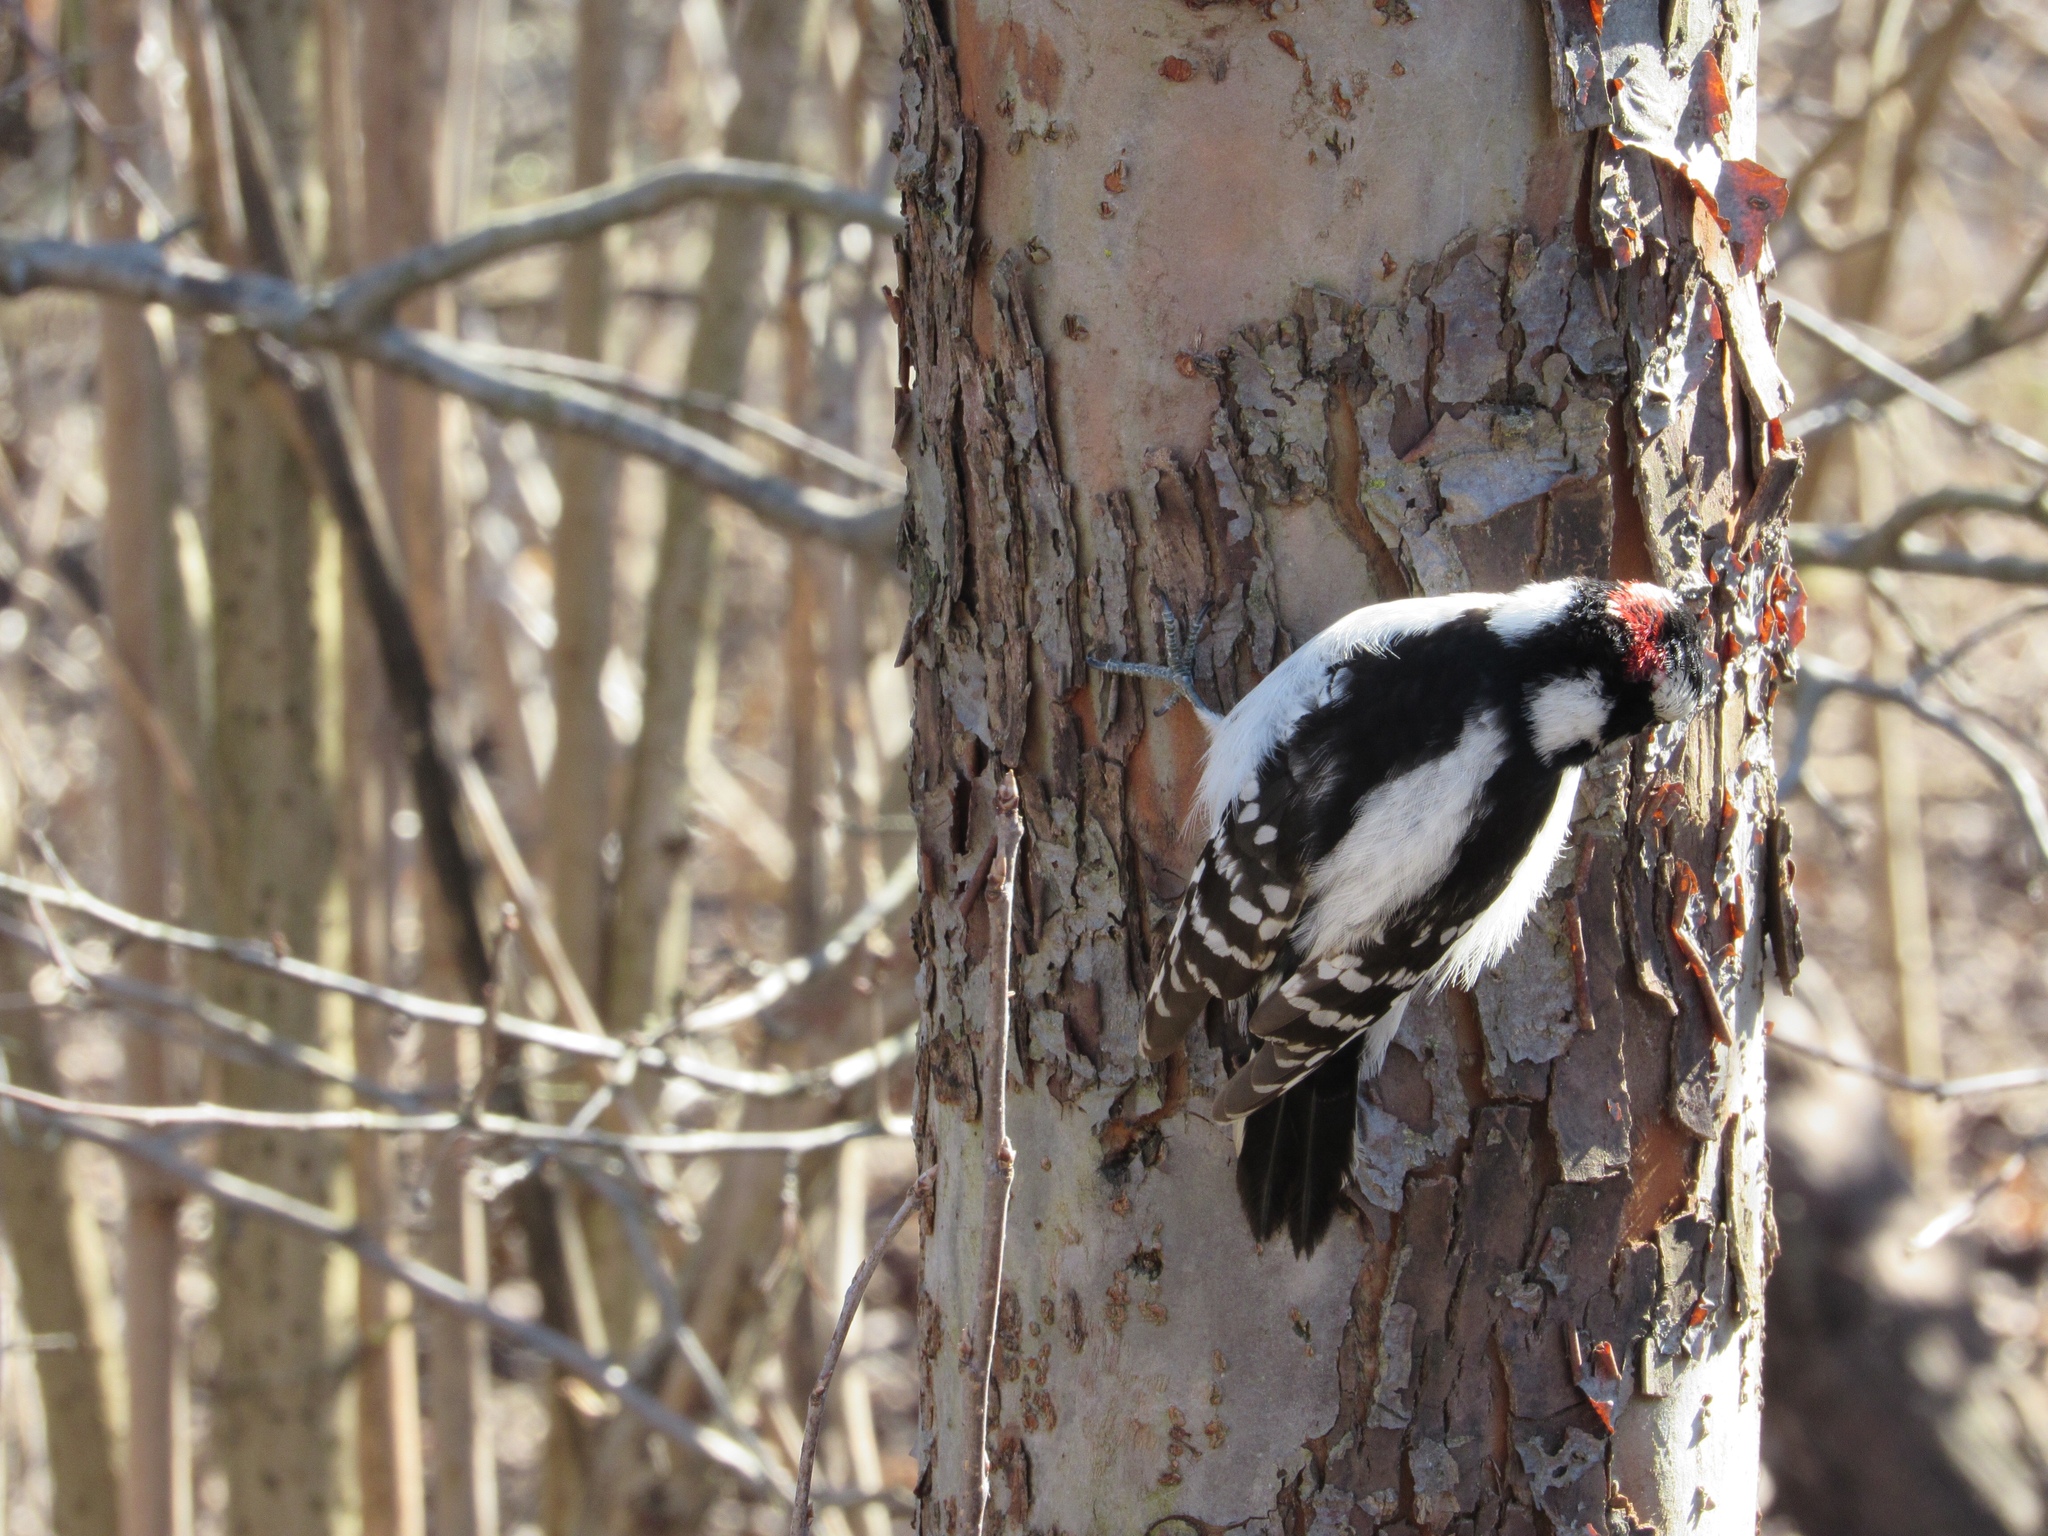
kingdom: Animalia
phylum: Chordata
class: Aves
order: Piciformes
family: Picidae
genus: Dryobates
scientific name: Dryobates pubescens
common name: Downy woodpecker
